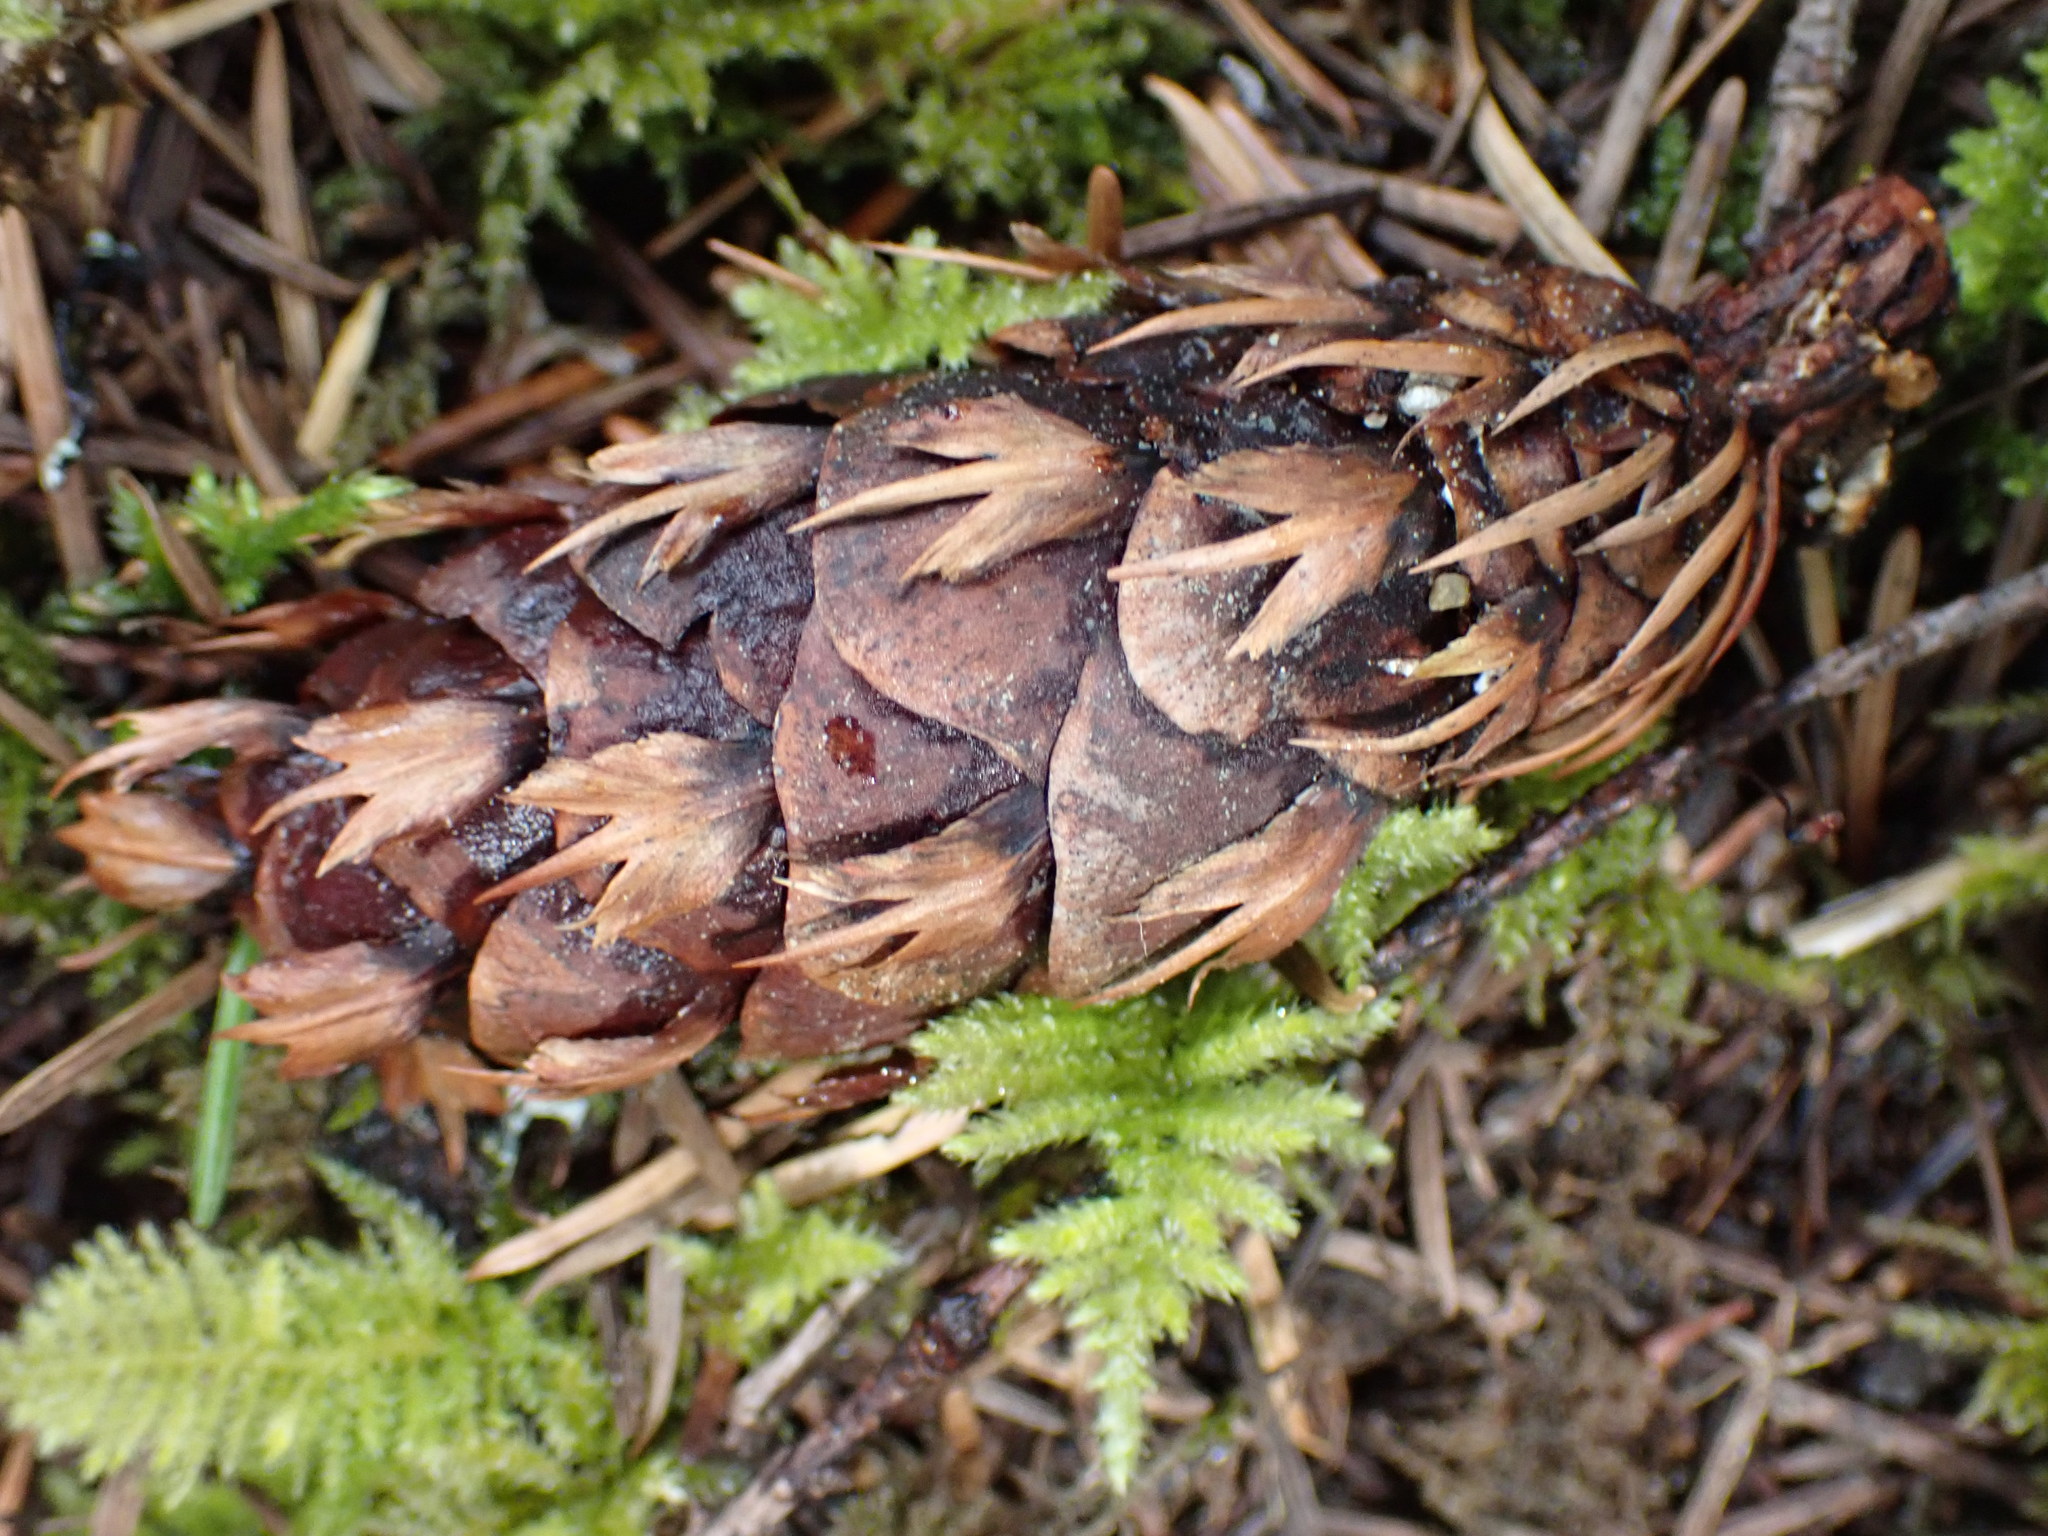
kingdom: Plantae
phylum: Tracheophyta
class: Pinopsida
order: Pinales
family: Pinaceae
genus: Pseudotsuga
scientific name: Pseudotsuga menziesii
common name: Douglas fir
